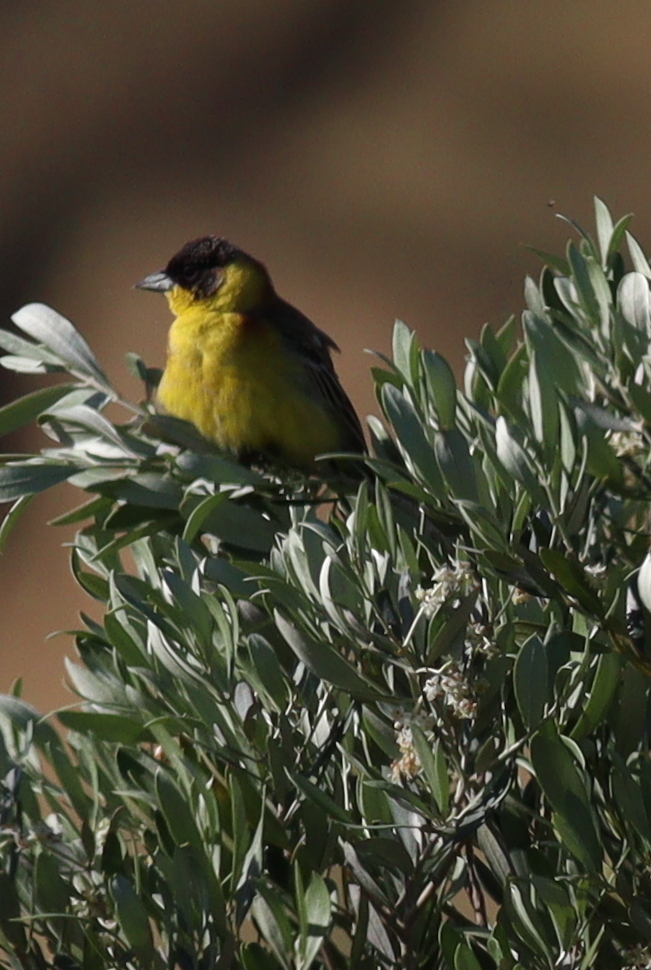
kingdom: Animalia
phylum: Chordata
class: Aves
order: Passeriformes
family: Emberizidae
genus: Emberiza
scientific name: Emberiza melanocephala
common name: Black-headed bunting
